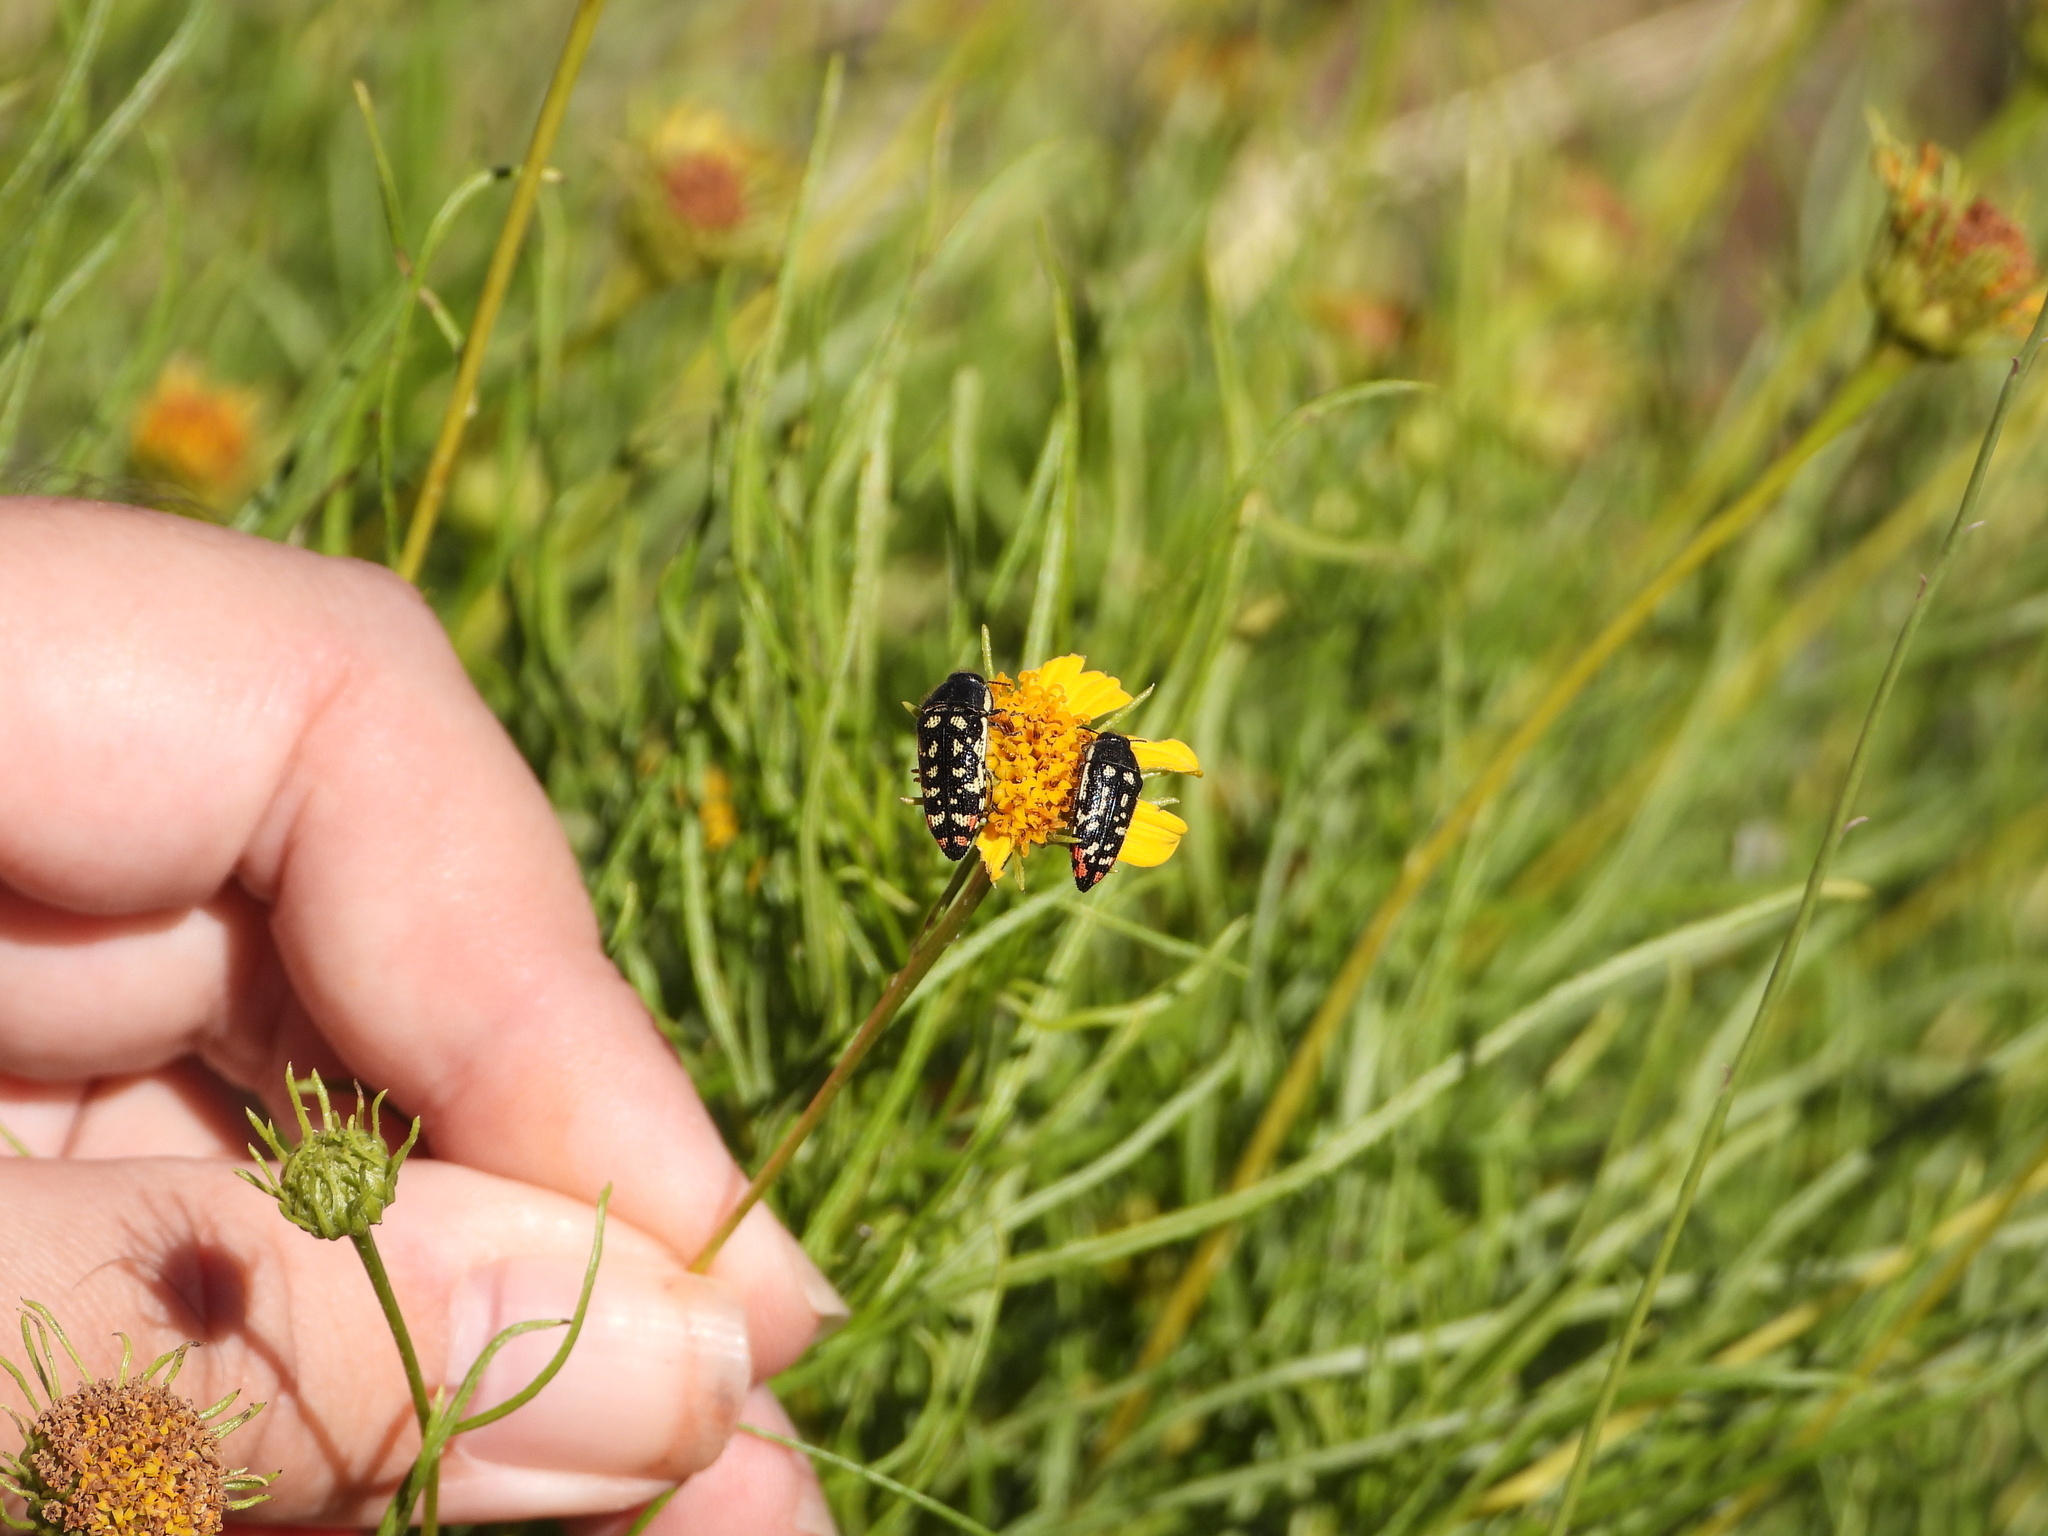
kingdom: Animalia
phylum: Arthropoda
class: Insecta
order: Coleoptera
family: Buprestidae
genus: Acmaeodera
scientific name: Acmaeodera opacula
